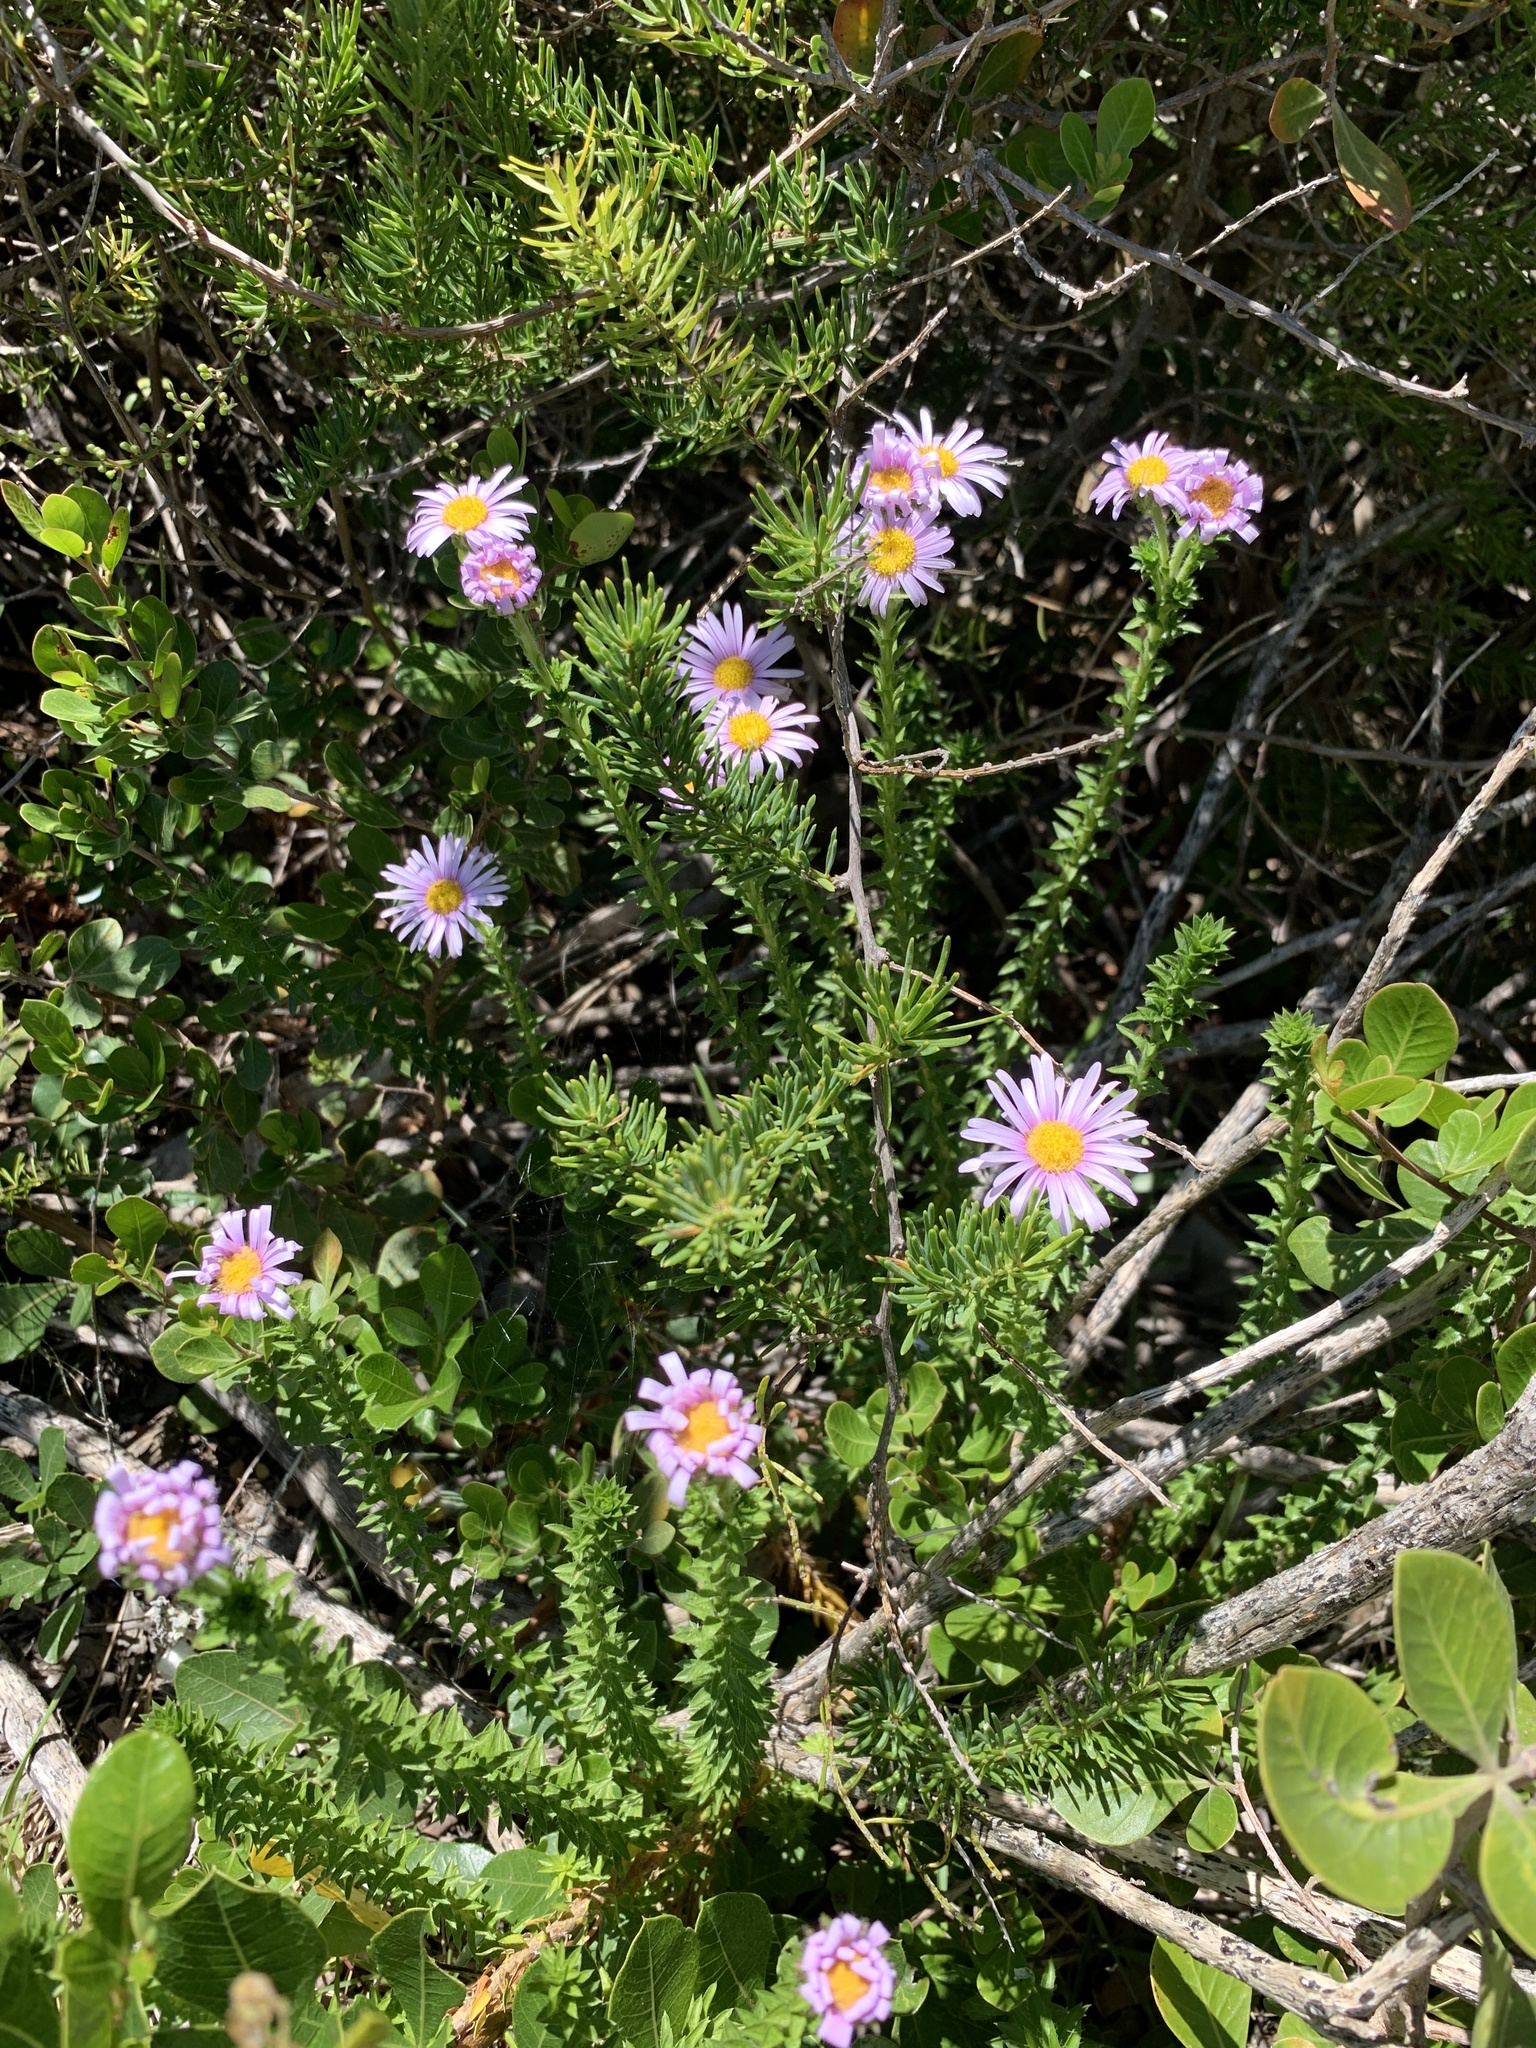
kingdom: Plantae
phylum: Tracheophyta
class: Magnoliopsida
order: Asterales
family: Asteraceae
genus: Felicia
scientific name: Felicia echinata
